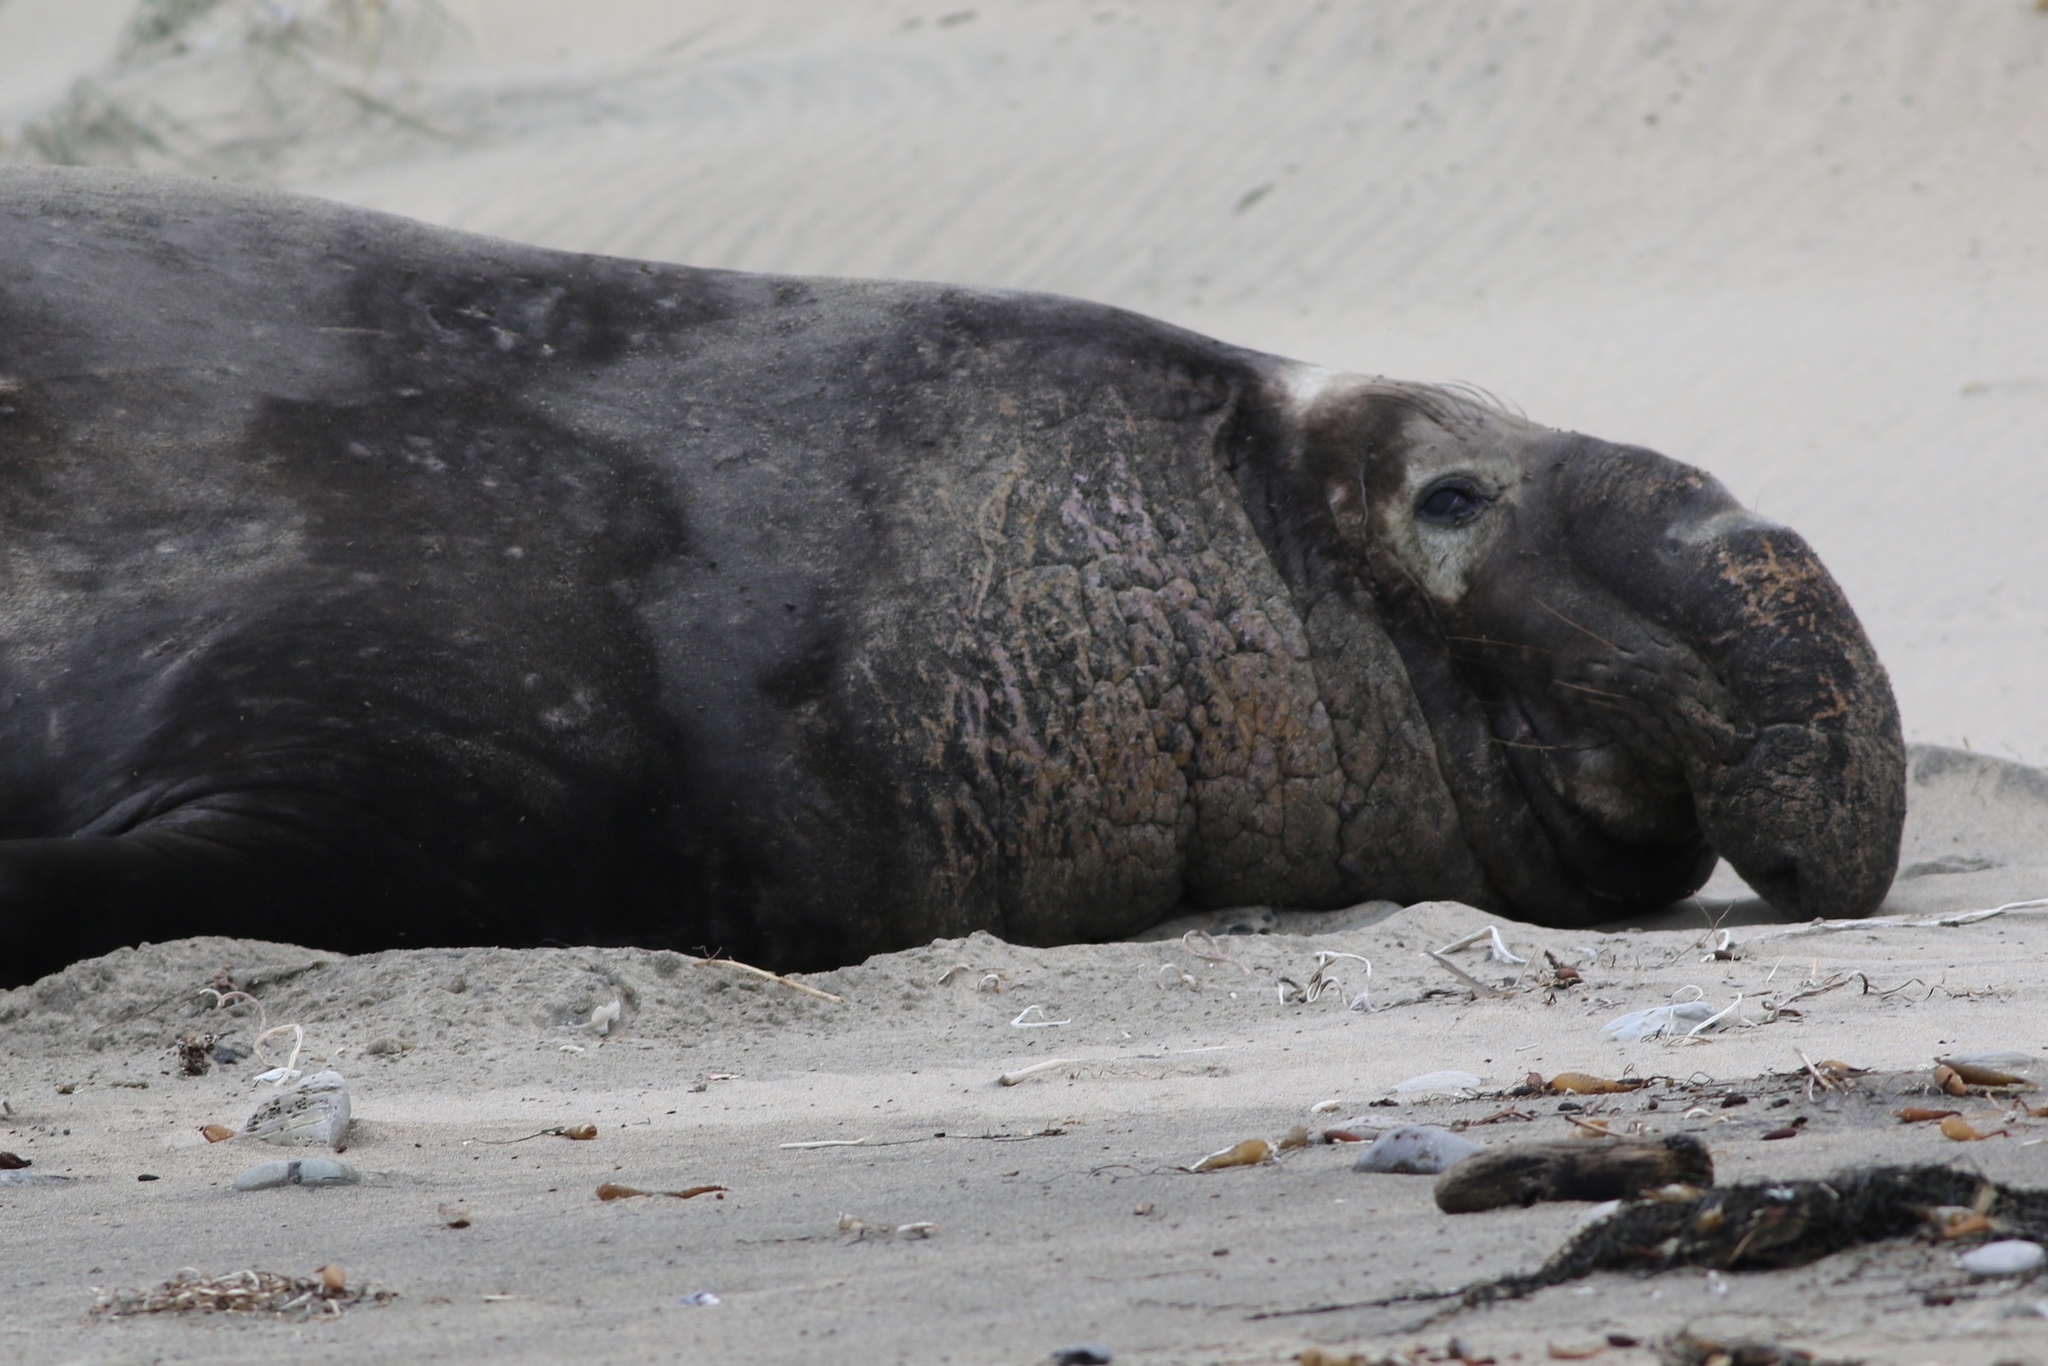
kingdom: Animalia
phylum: Chordata
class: Mammalia
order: Carnivora
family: Phocidae
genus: Mirounga
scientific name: Mirounga angustirostris
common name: Northern elephant seal
